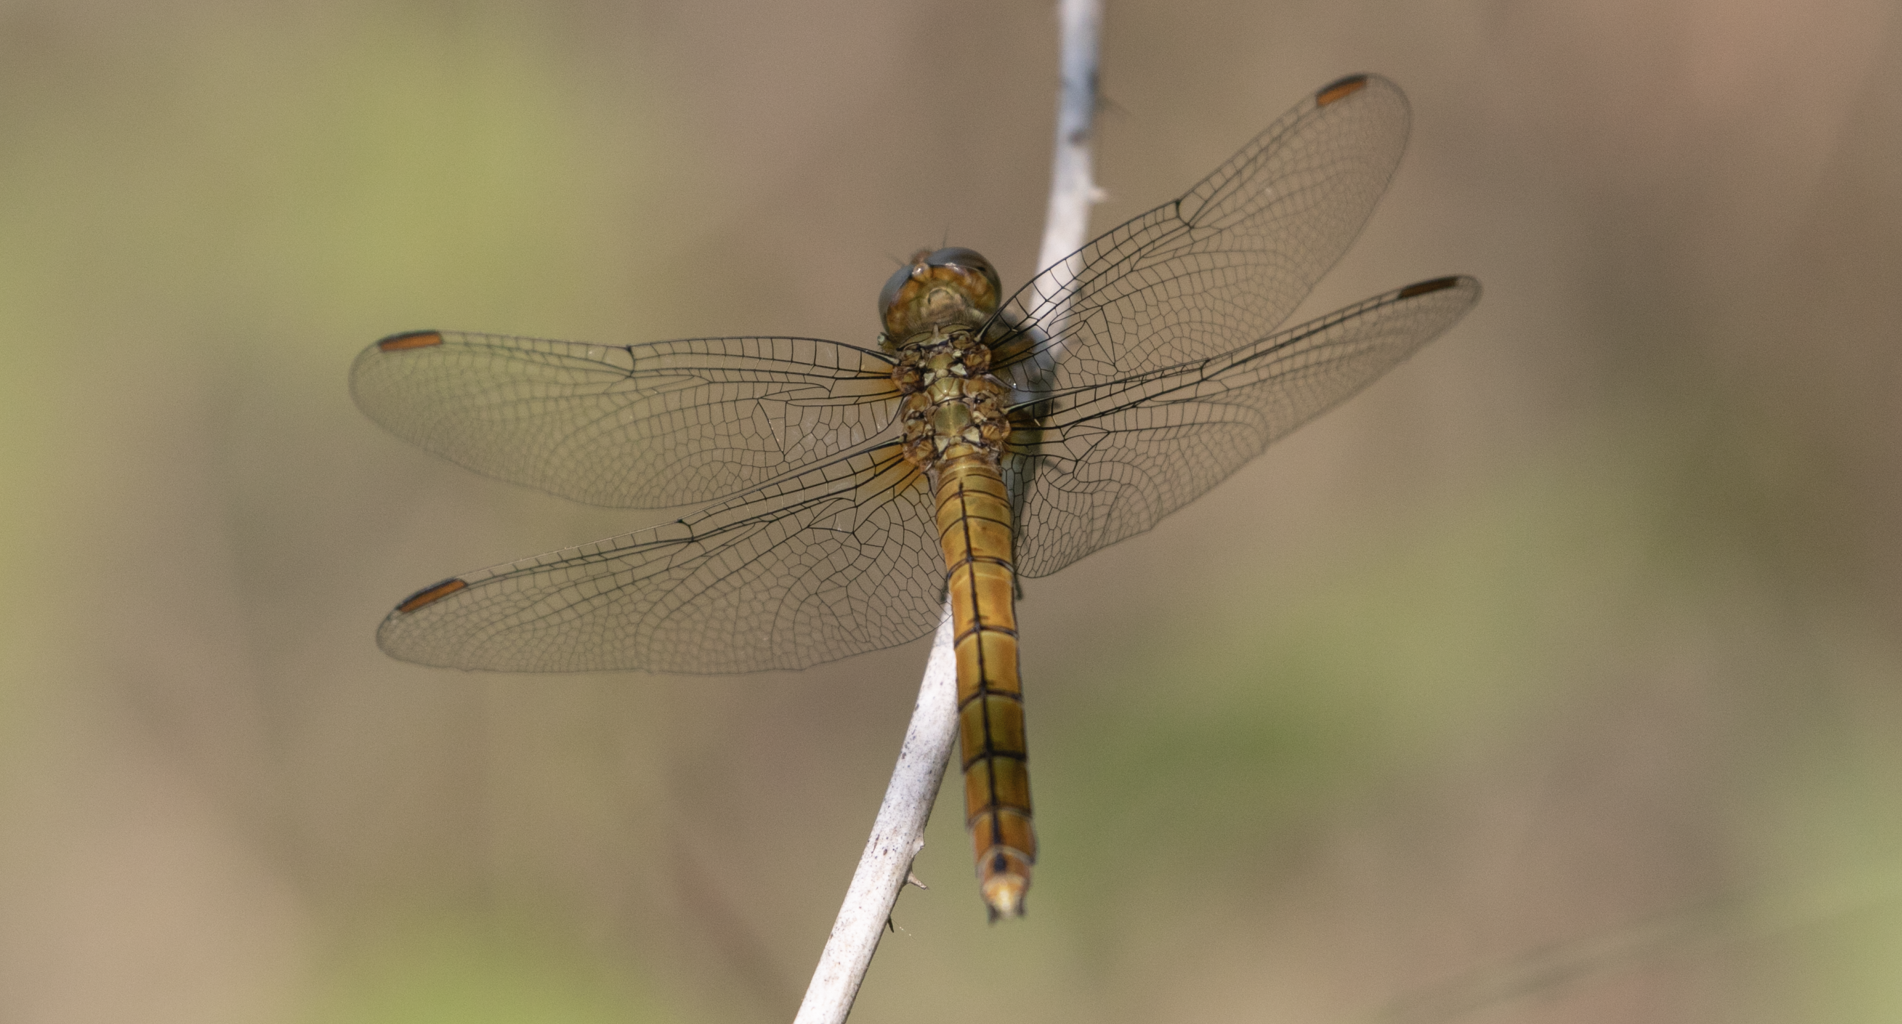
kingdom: Animalia
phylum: Arthropoda
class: Insecta
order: Odonata
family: Libellulidae
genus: Orthetrum
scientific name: Orthetrum coerulescens
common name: Keeled skimmer
